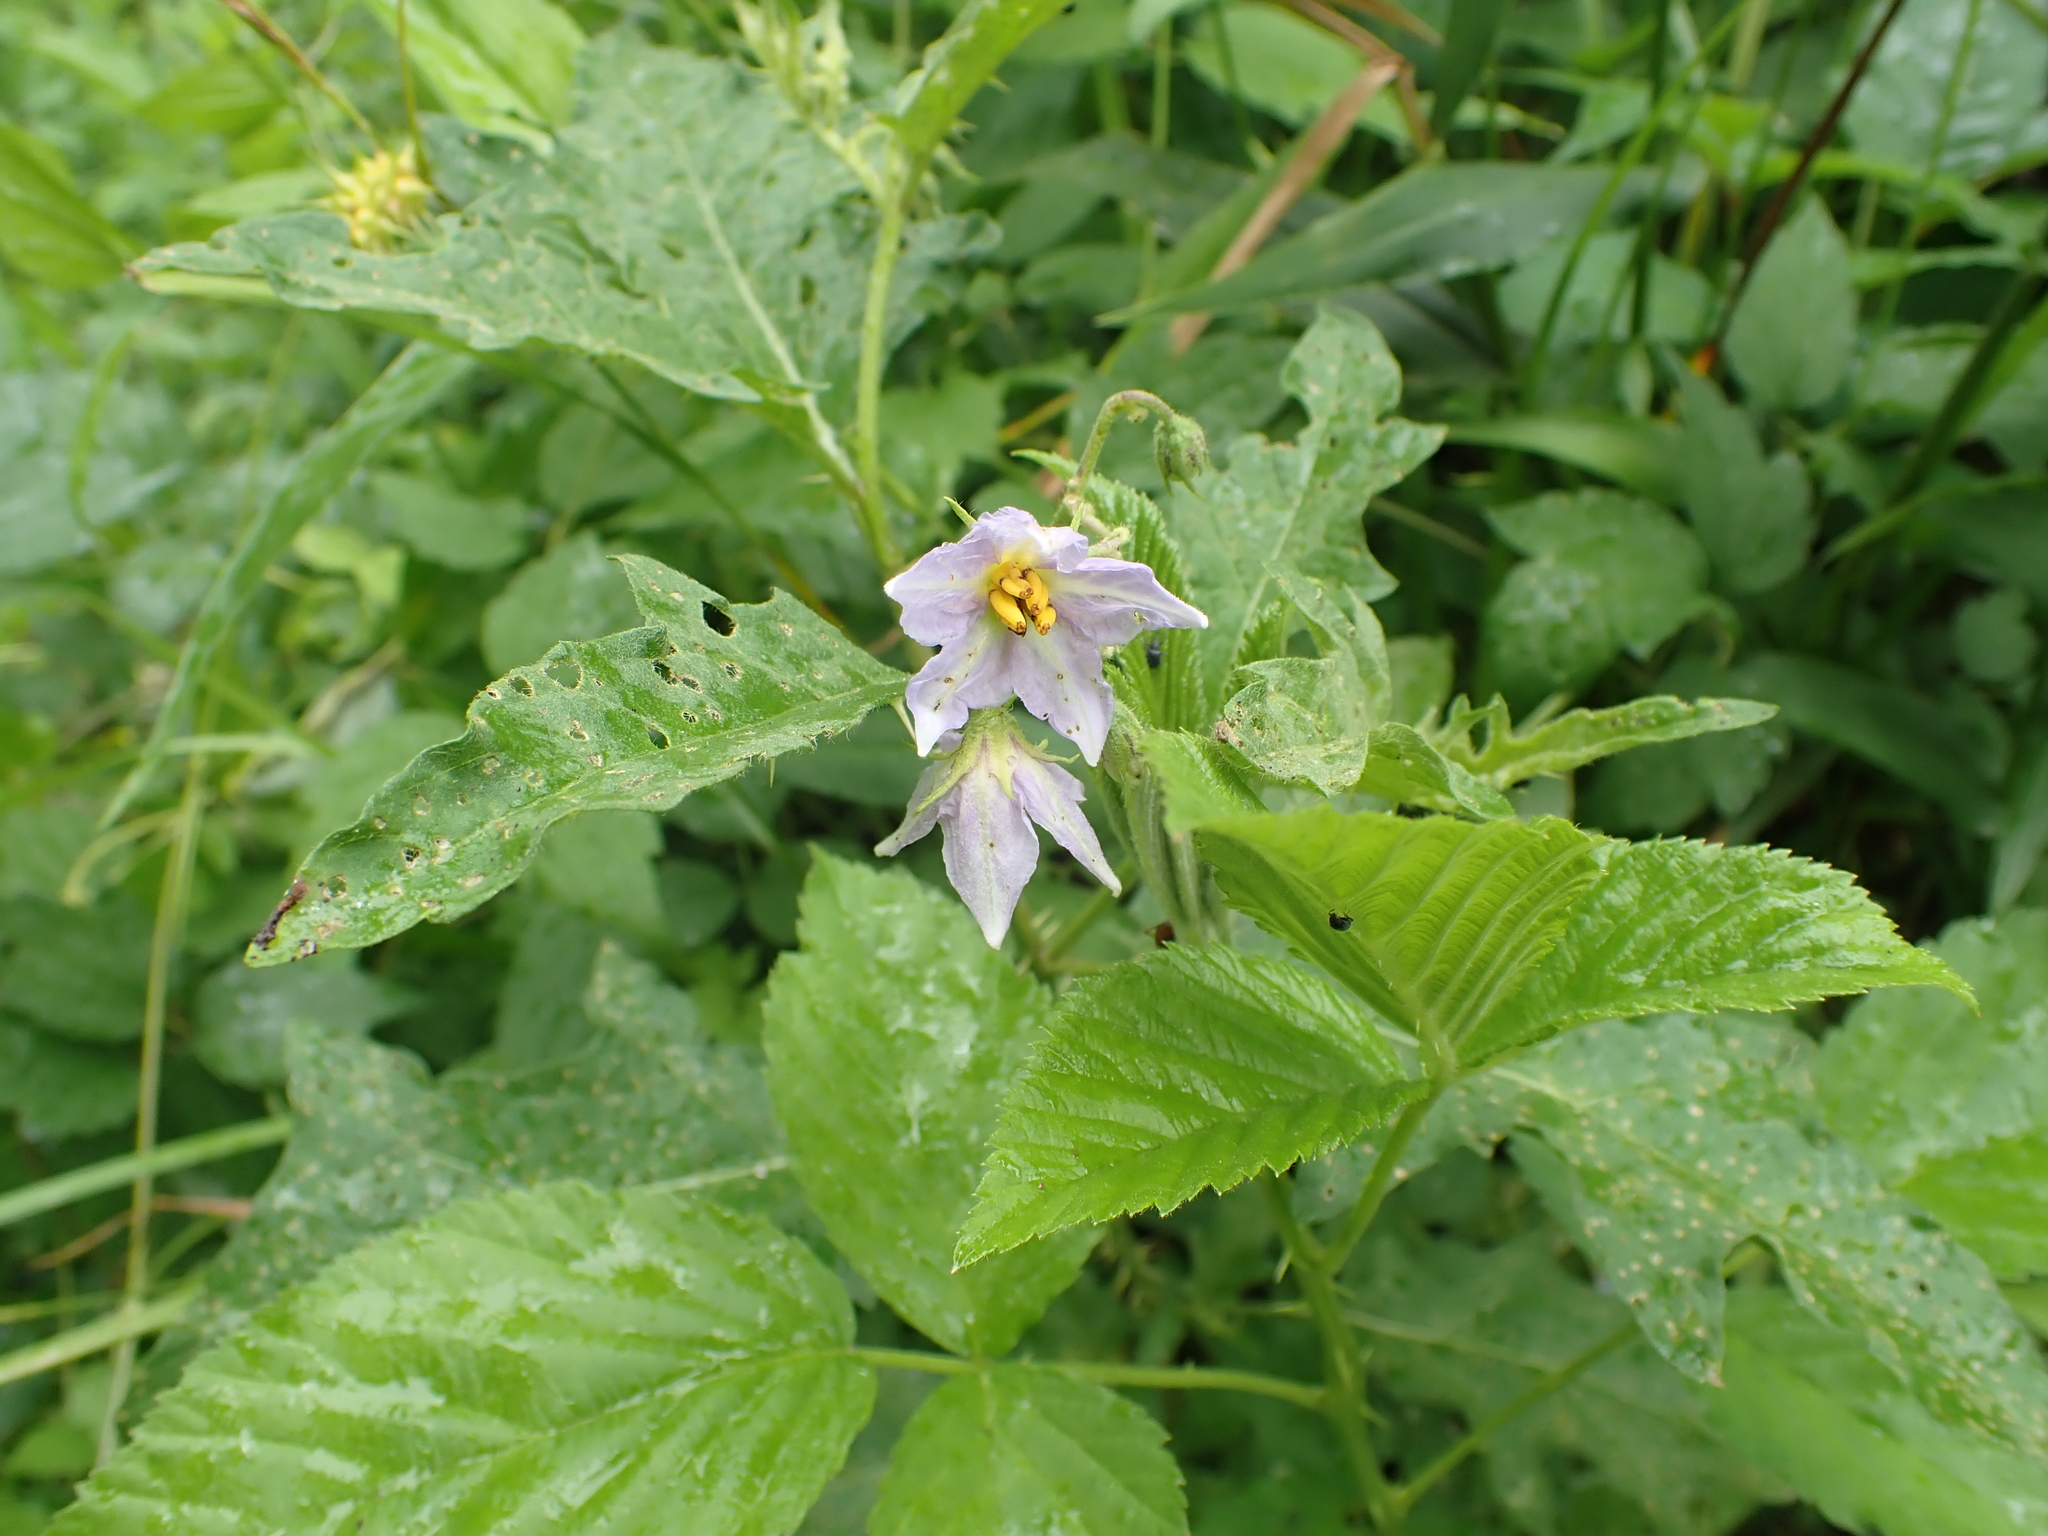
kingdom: Plantae
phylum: Tracheophyta
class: Magnoliopsida
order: Solanales
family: Solanaceae
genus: Solanum
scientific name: Solanum carolinense
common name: Horse-nettle
